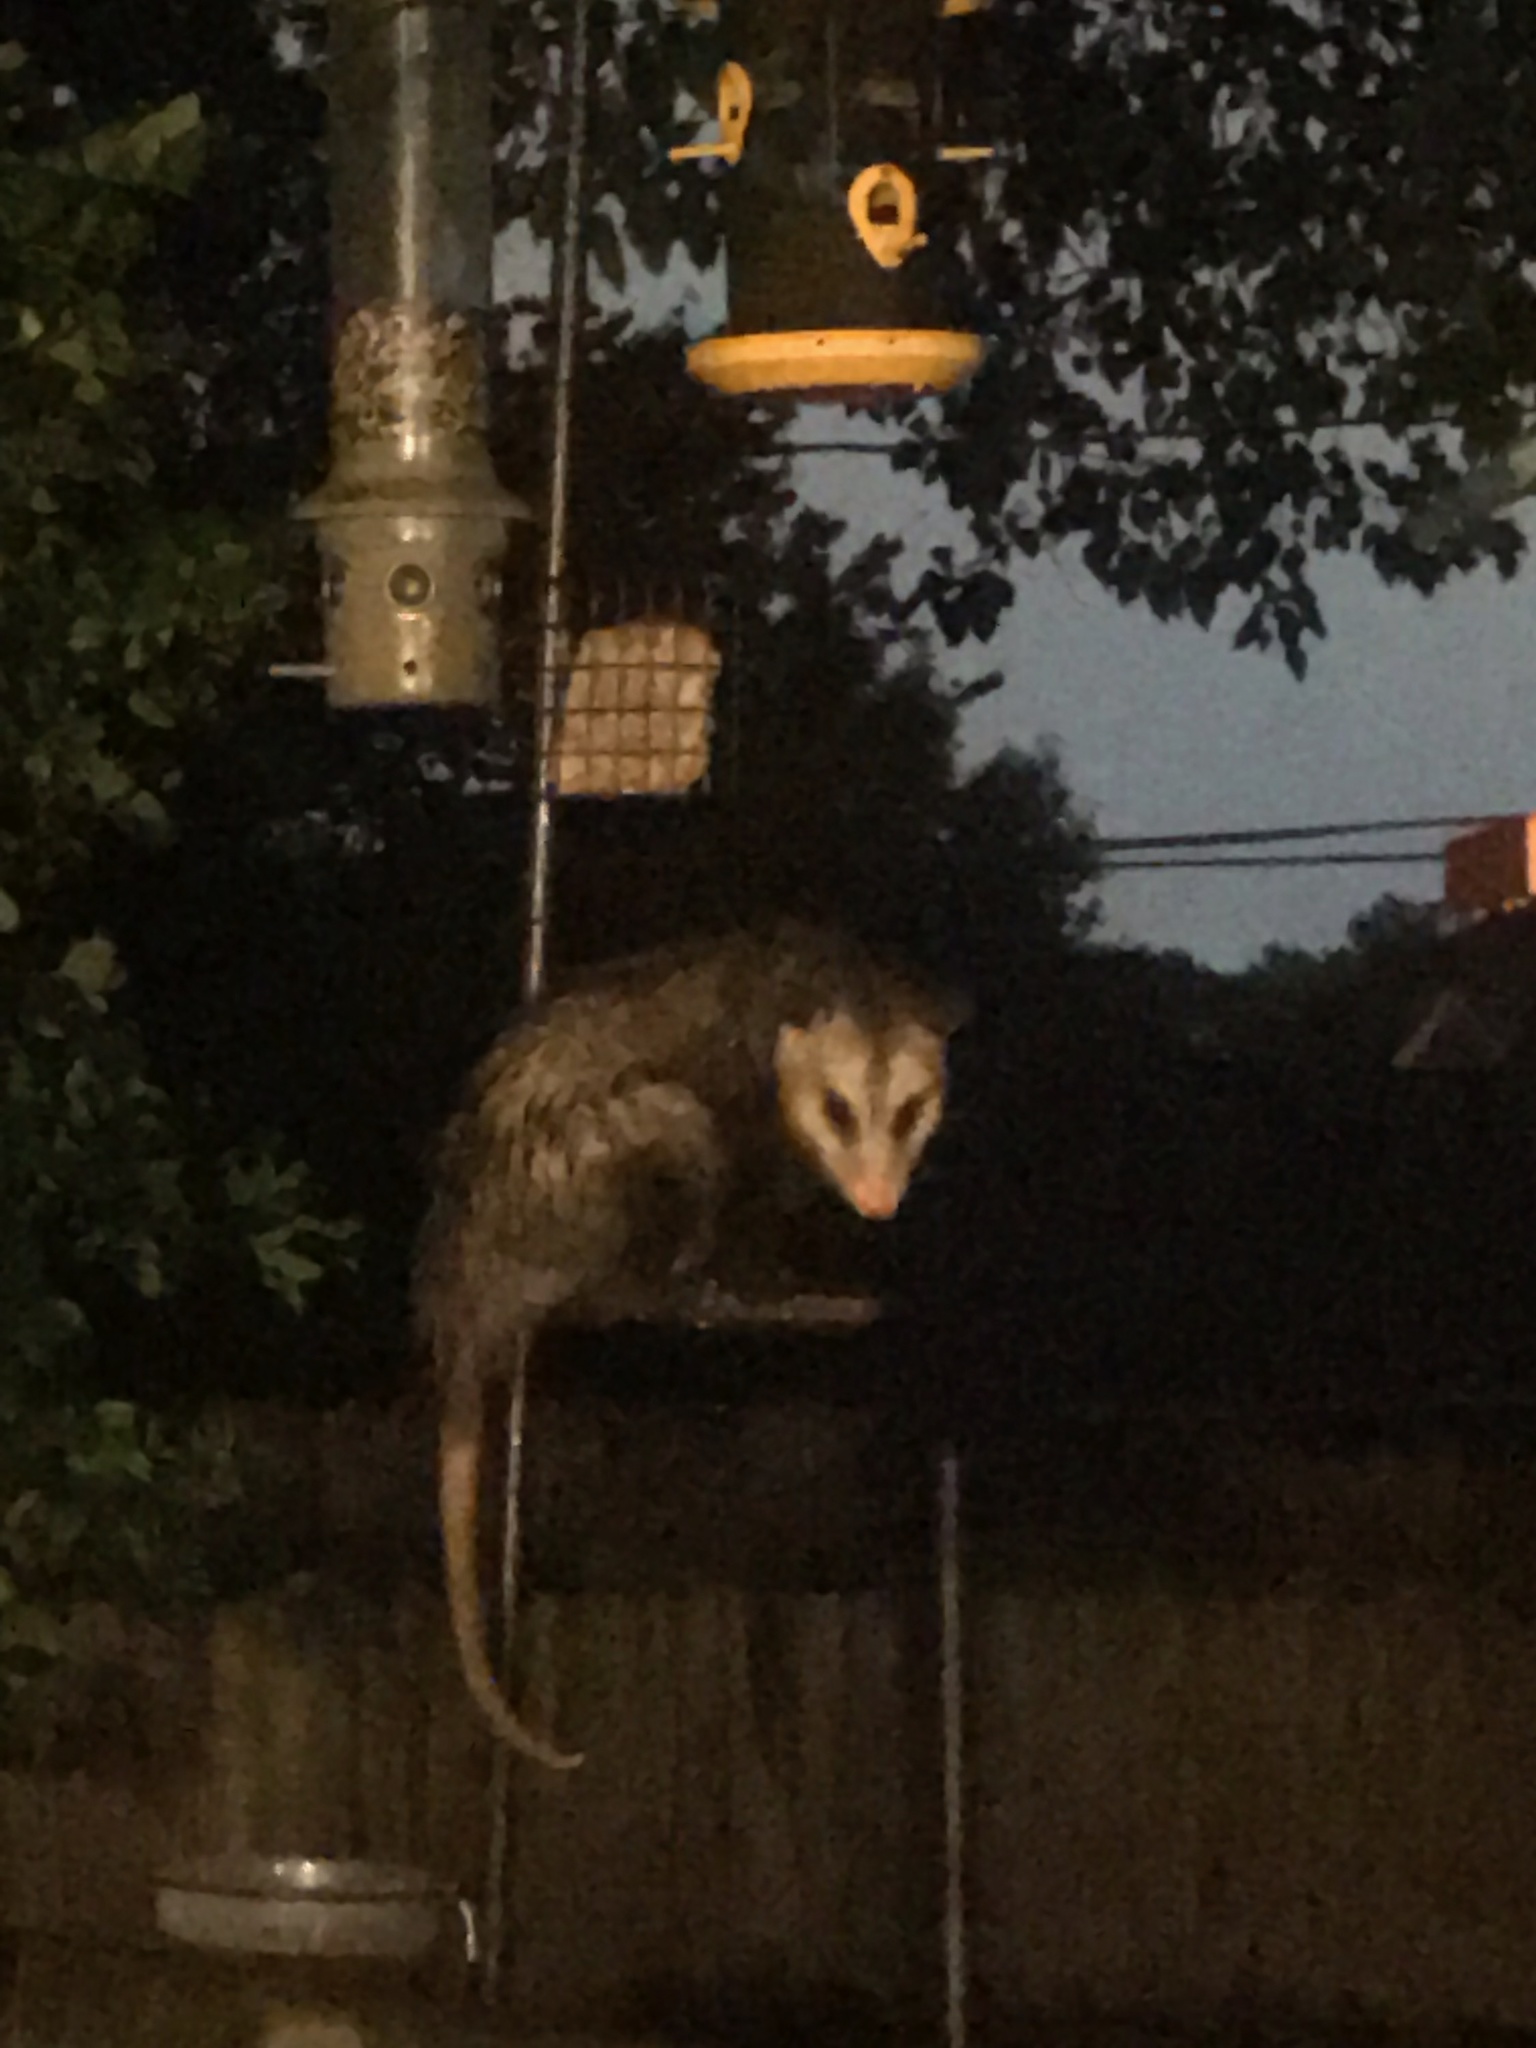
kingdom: Animalia
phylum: Chordata
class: Mammalia
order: Didelphimorphia
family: Didelphidae
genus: Didelphis
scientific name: Didelphis virginiana
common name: Virginia opossum
